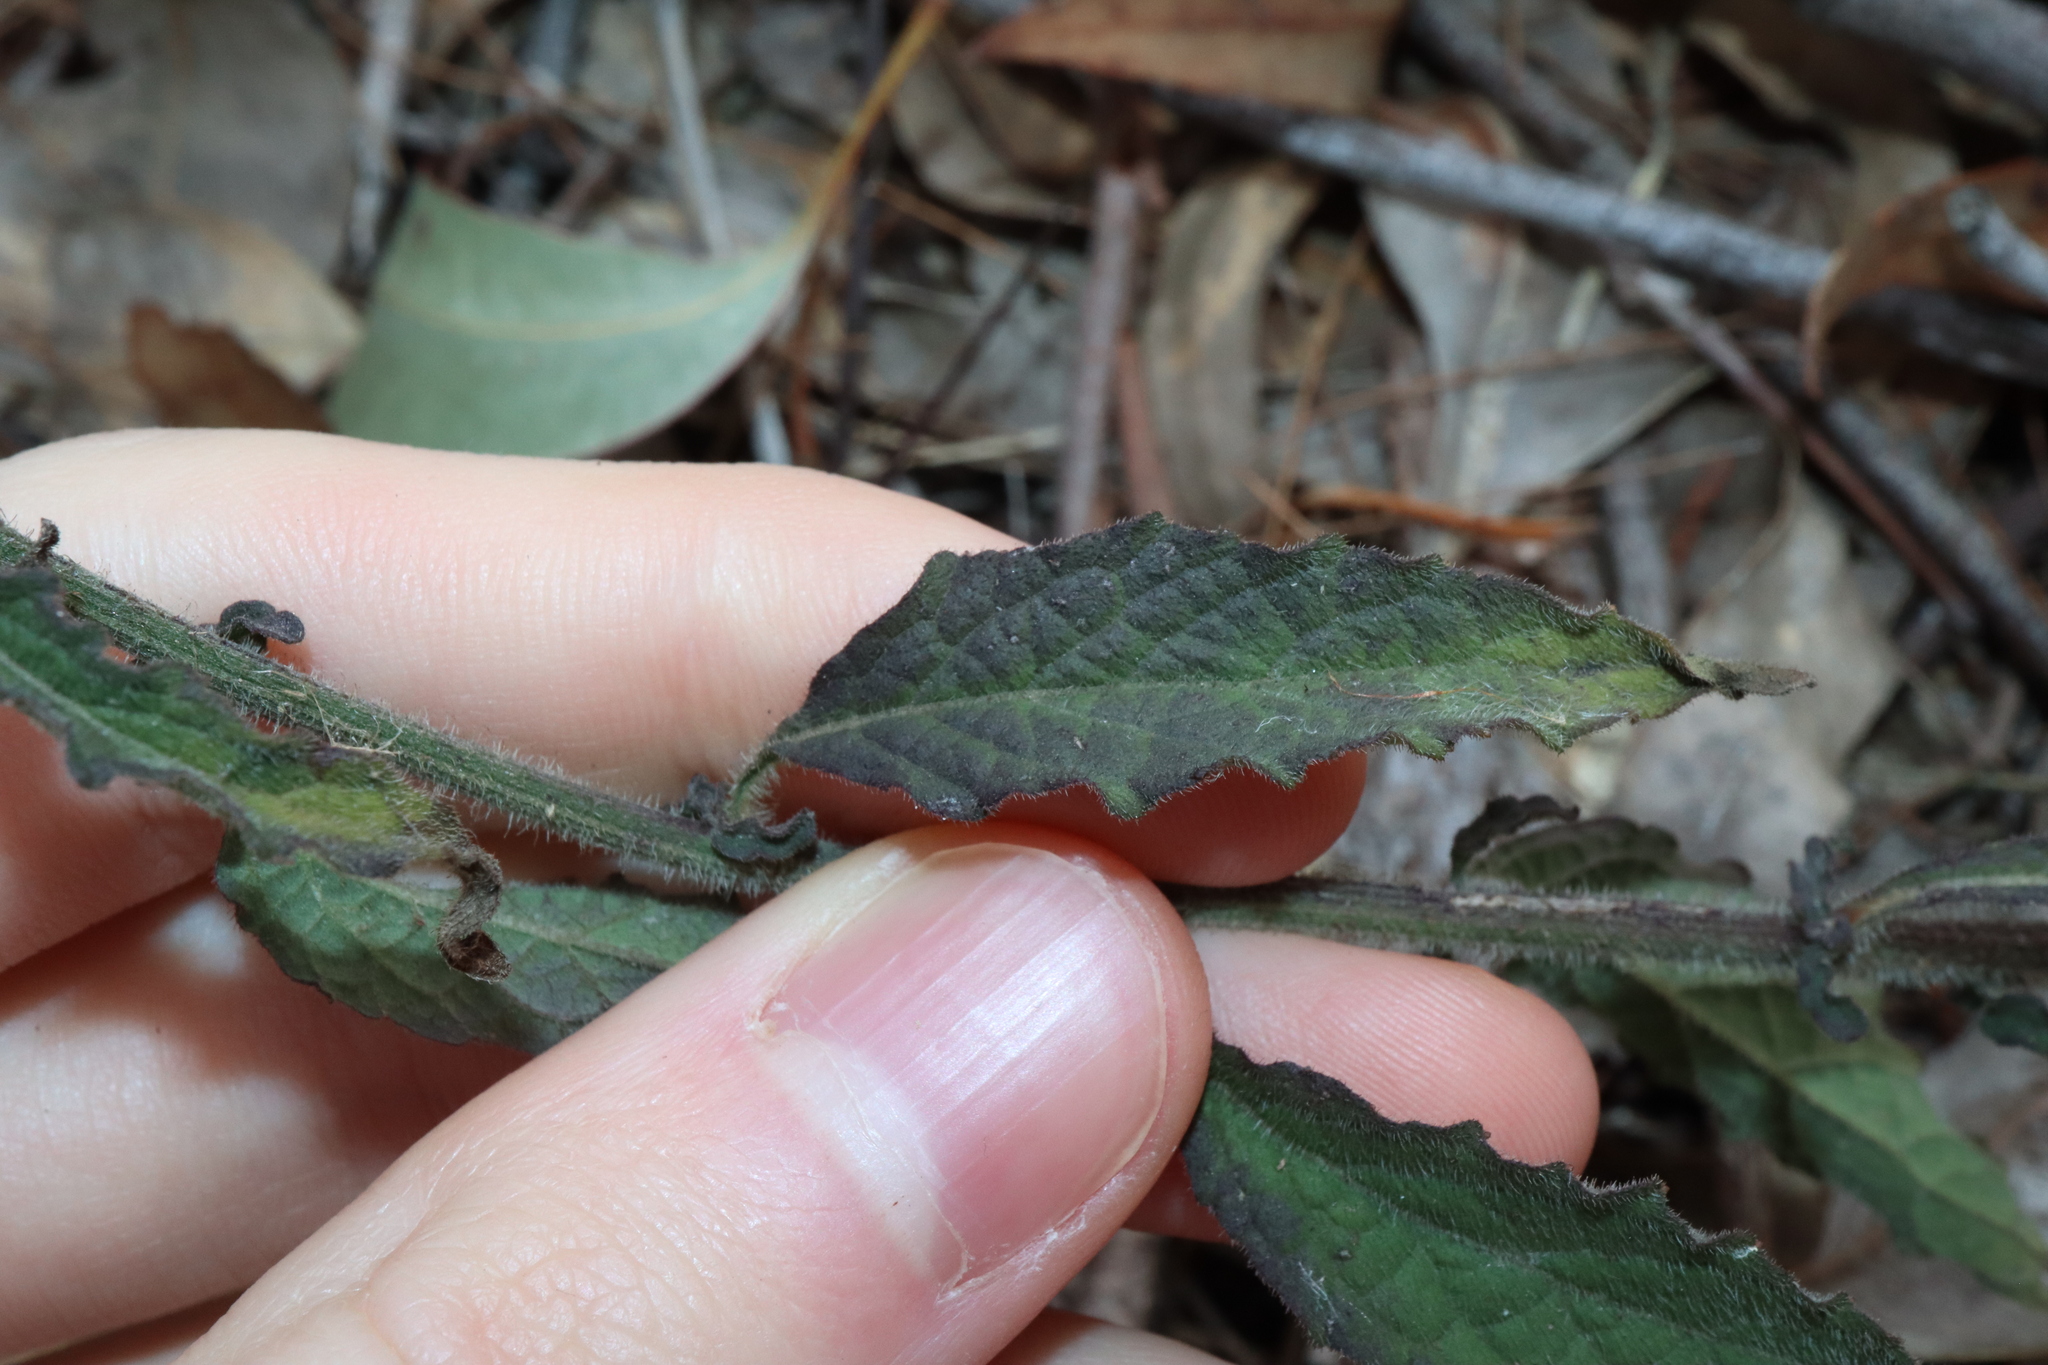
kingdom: Plantae
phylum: Tracheophyta
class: Magnoliopsida
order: Asterales
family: Asteraceae
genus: Cyanthillium
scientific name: Cyanthillium cinereum
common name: Little ironweed
